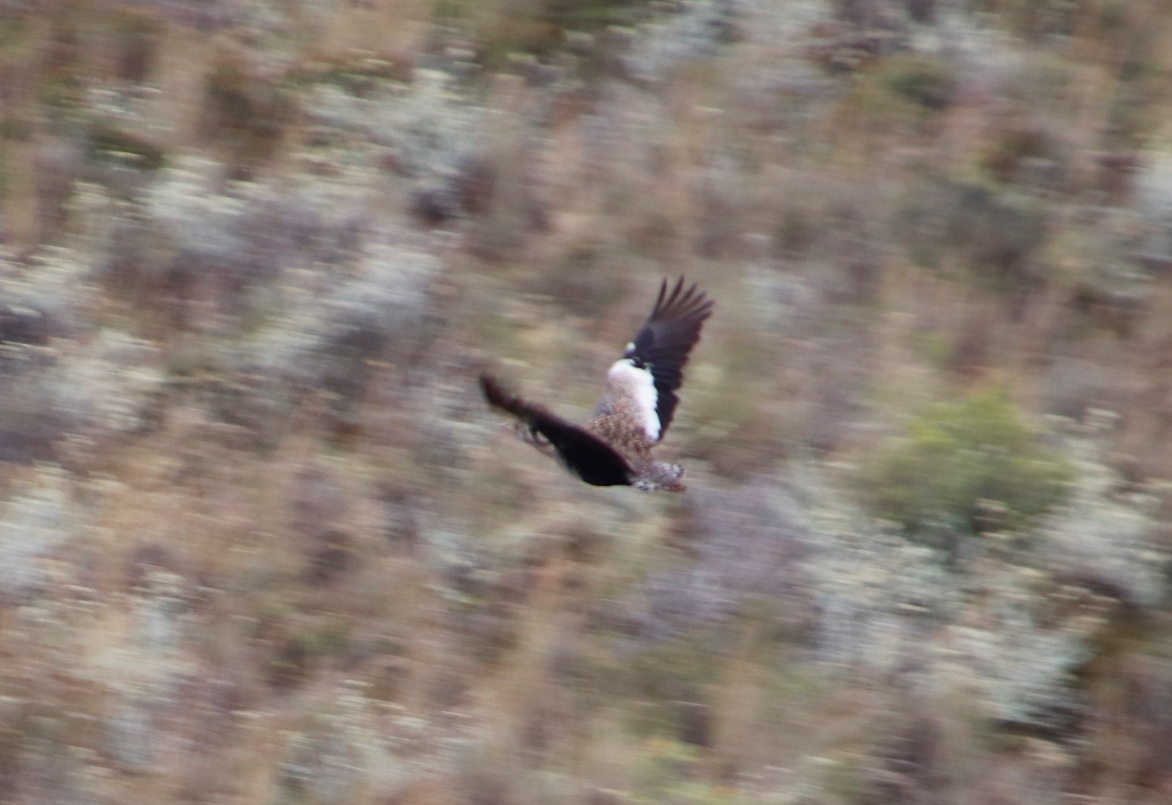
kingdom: Animalia
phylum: Chordata
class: Aves
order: Otidiformes
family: Otididae
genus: Afrotis
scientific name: Afrotis afra
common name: Southern black korhaan
